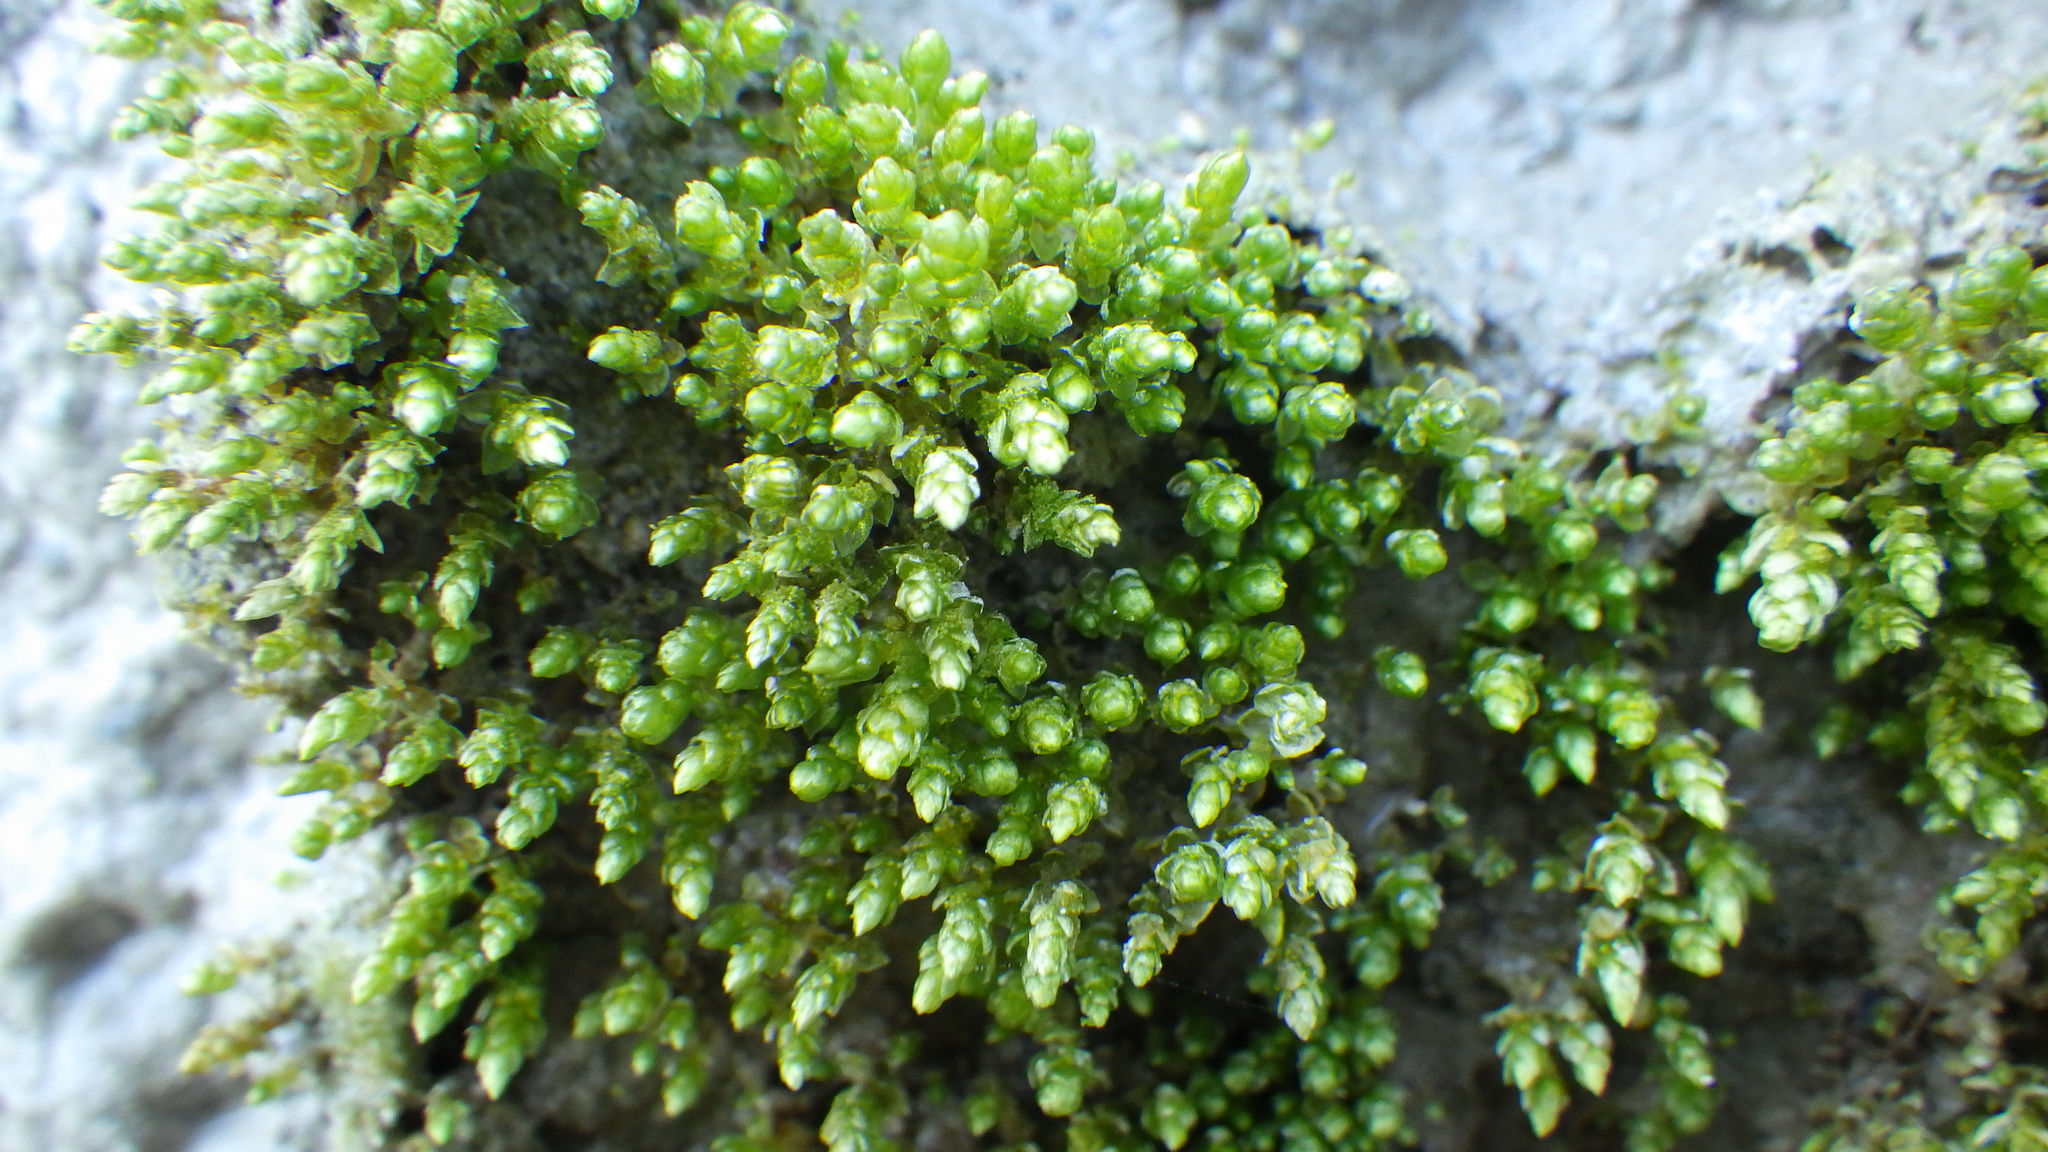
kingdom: Plantae
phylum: Bryophyta
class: Bryopsida
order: Bryales
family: Bryaceae
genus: Bryum
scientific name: Bryum argenteum
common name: Silver-moss
